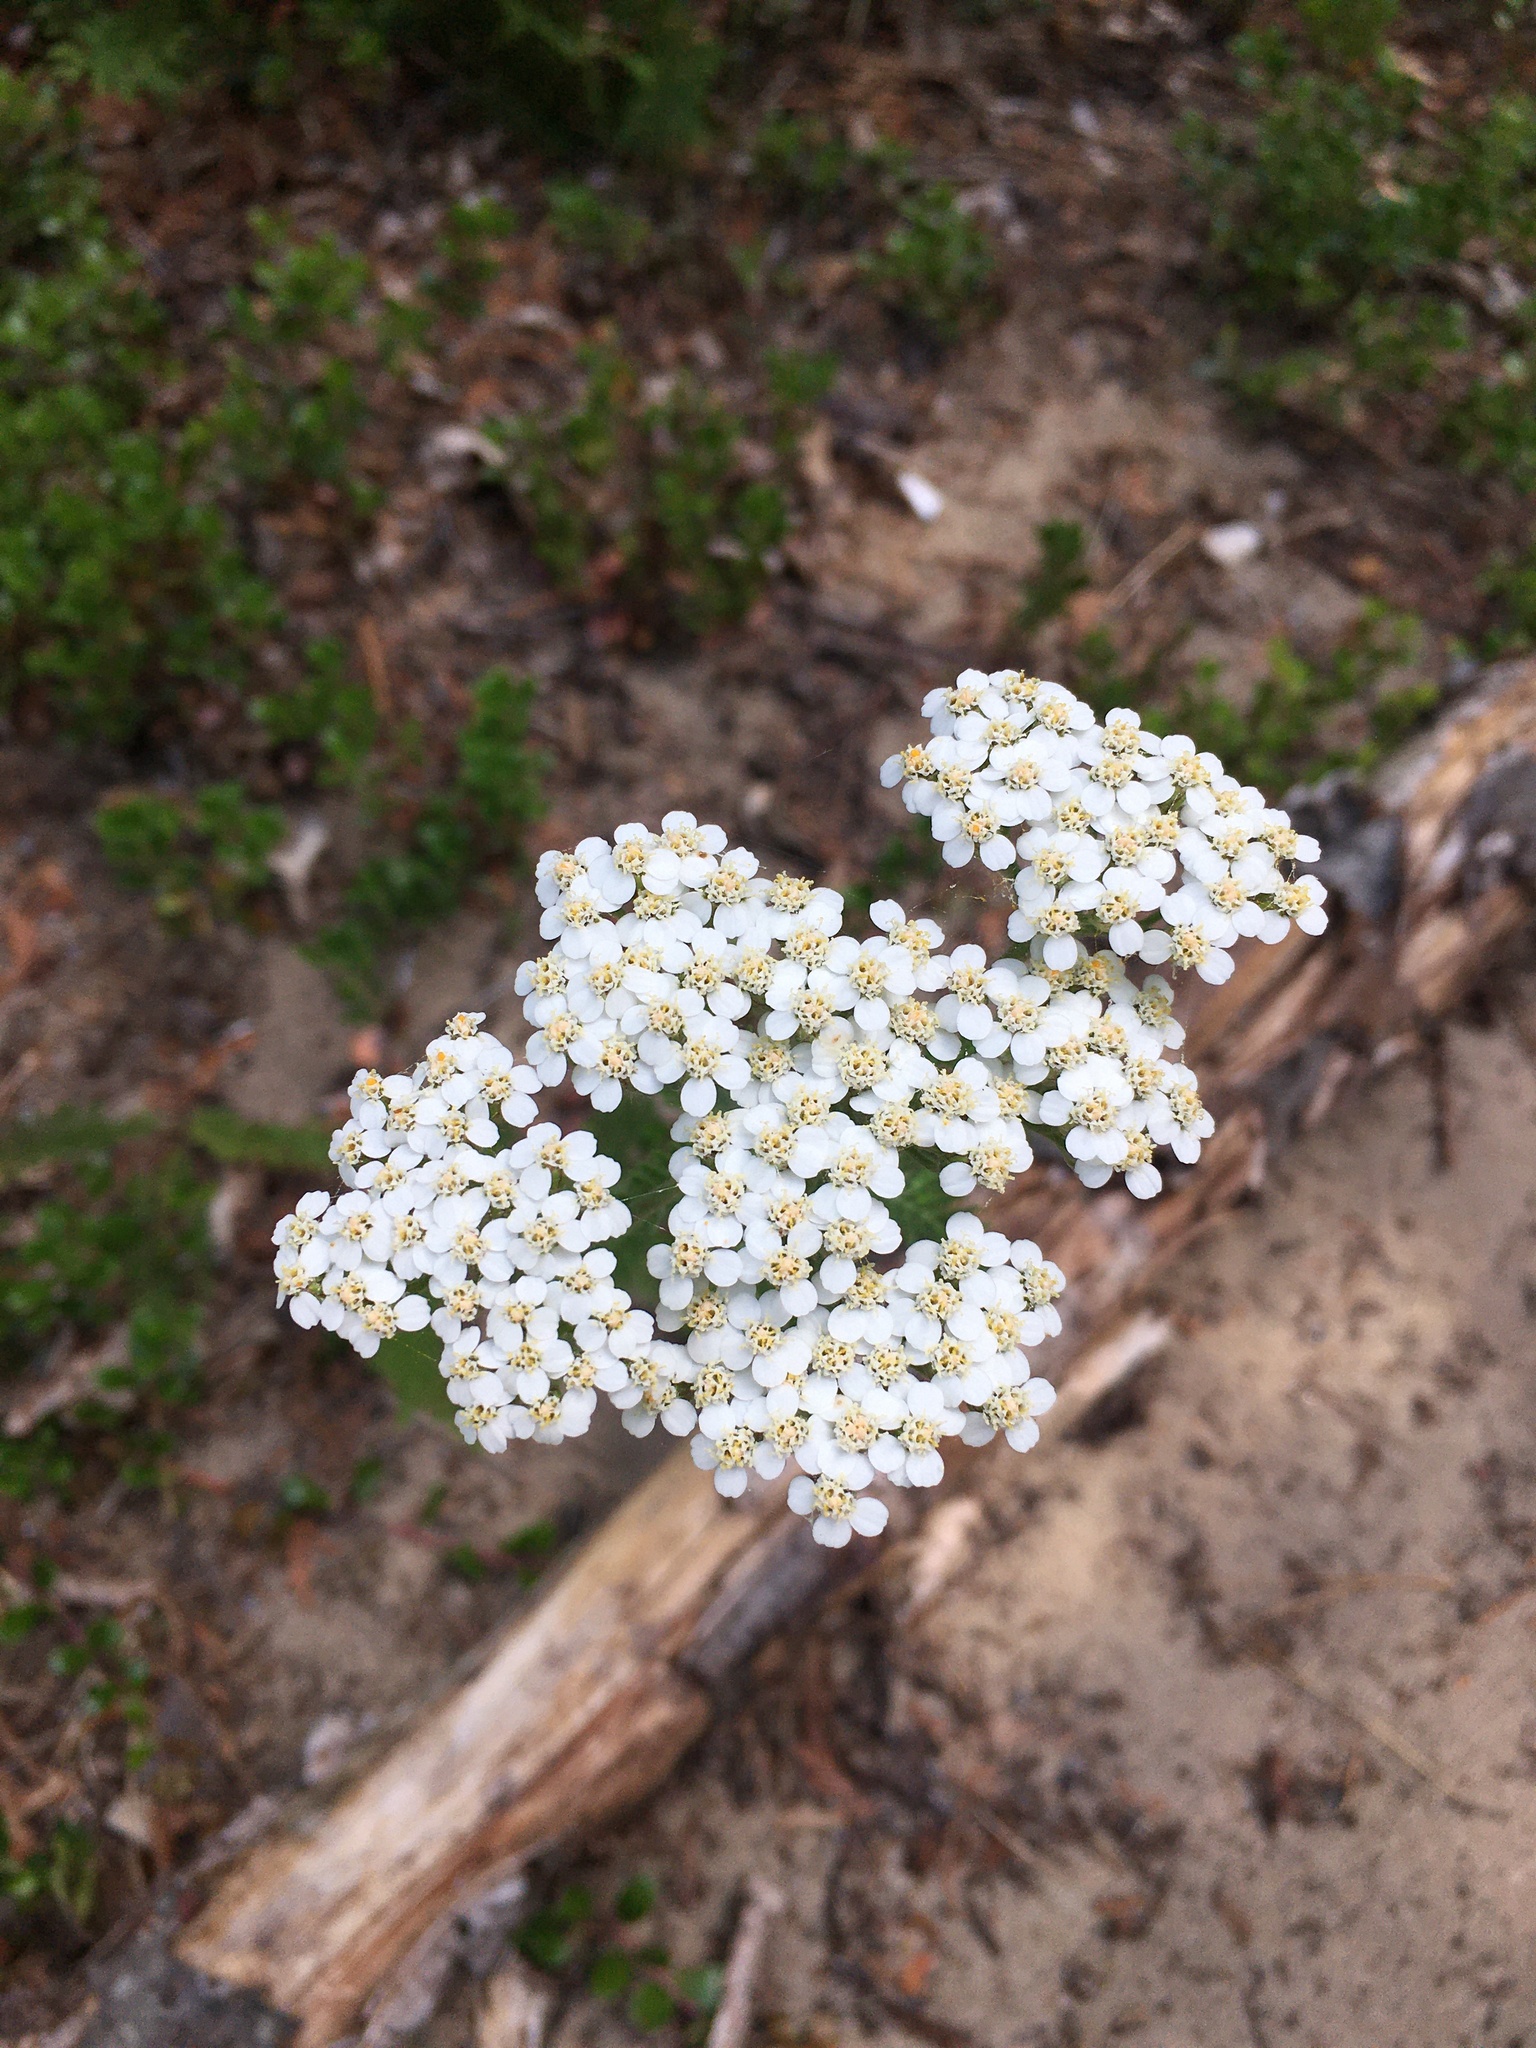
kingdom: Plantae
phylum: Tracheophyta
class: Magnoliopsida
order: Asterales
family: Asteraceae
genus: Achillea
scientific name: Achillea millefolium
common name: Yarrow
